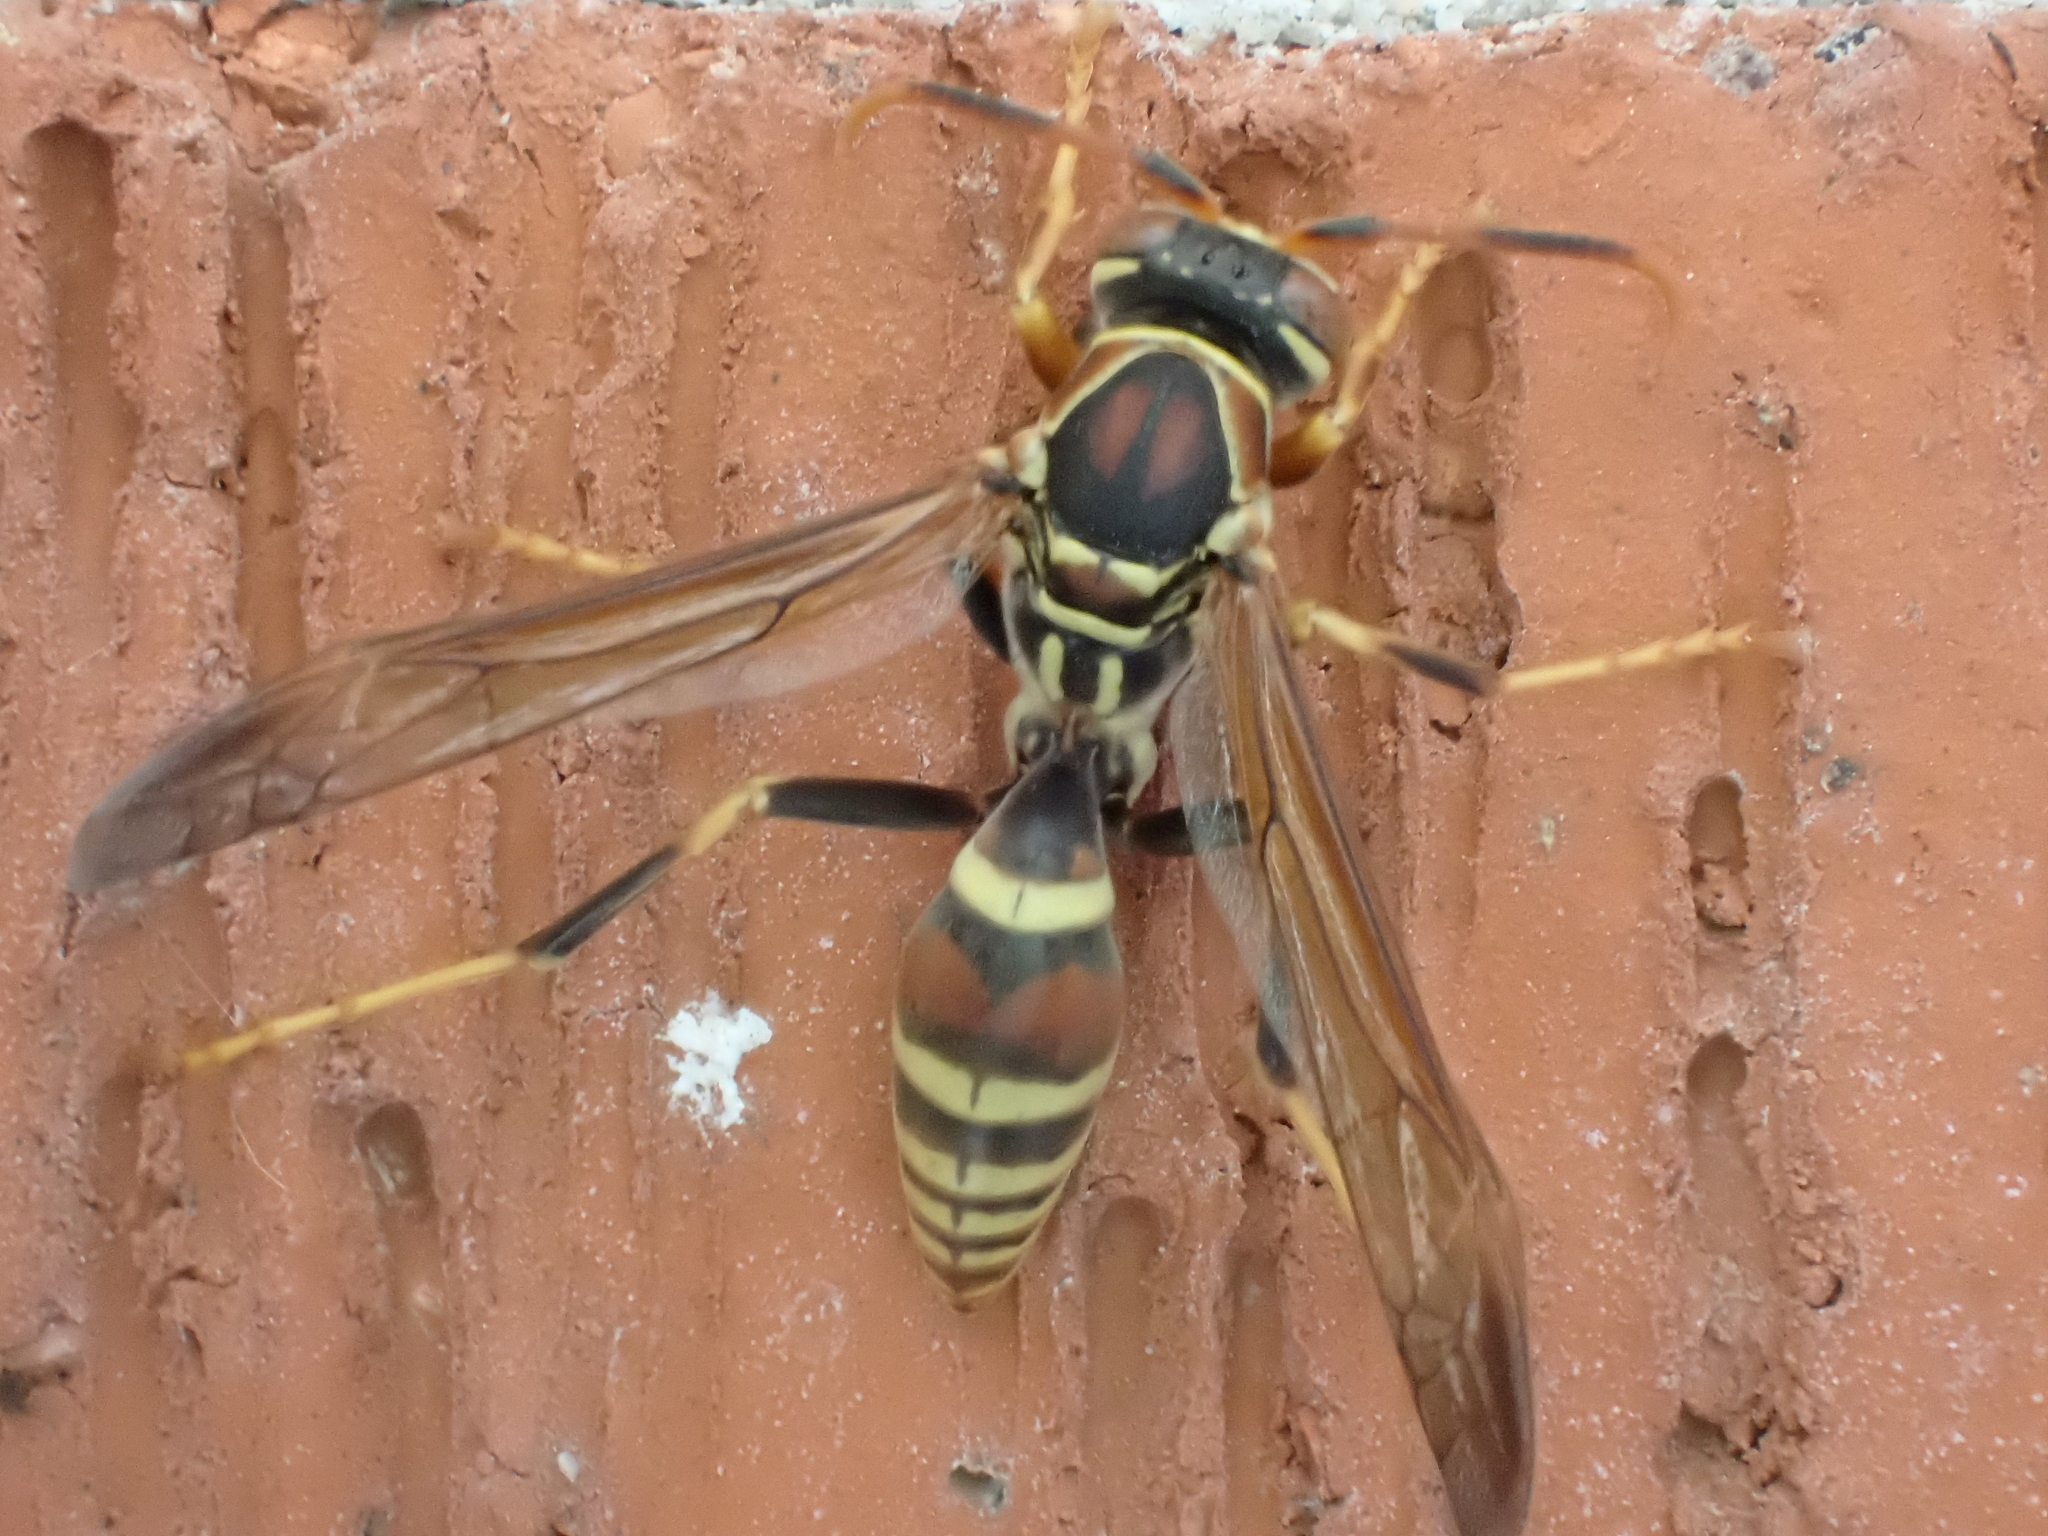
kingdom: Animalia
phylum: Arthropoda
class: Insecta
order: Hymenoptera
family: Eumenidae
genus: Polistes
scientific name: Polistes exclamans
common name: Paper wasp
